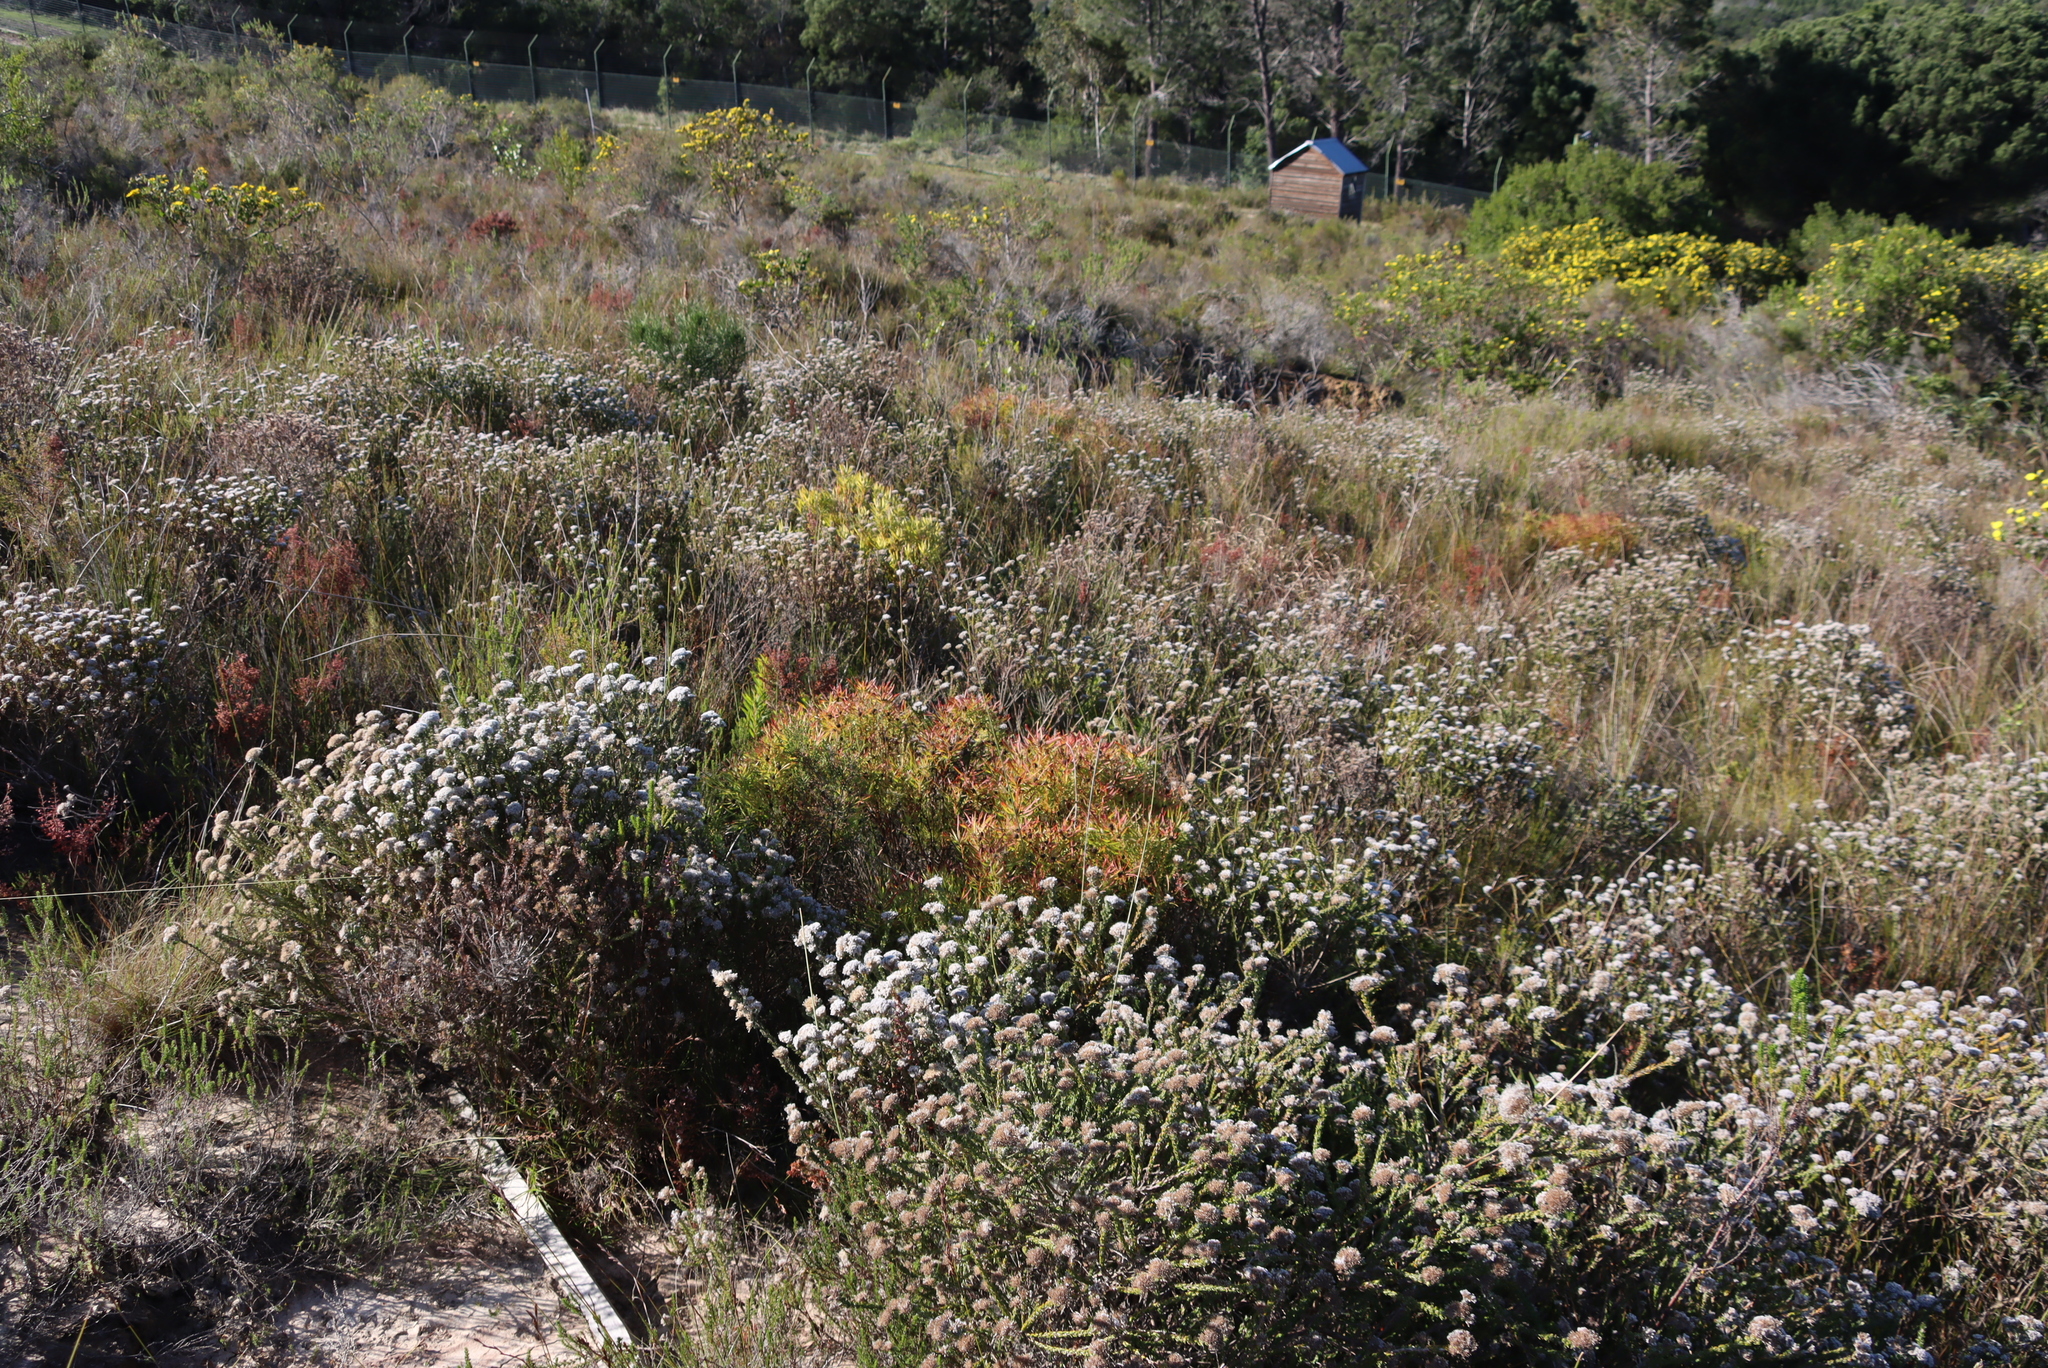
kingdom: Plantae
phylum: Tracheophyta
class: Magnoliopsida
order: Proteales
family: Proteaceae
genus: Leucadendron
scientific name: Leucadendron salignum
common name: Common sunshine conebush
